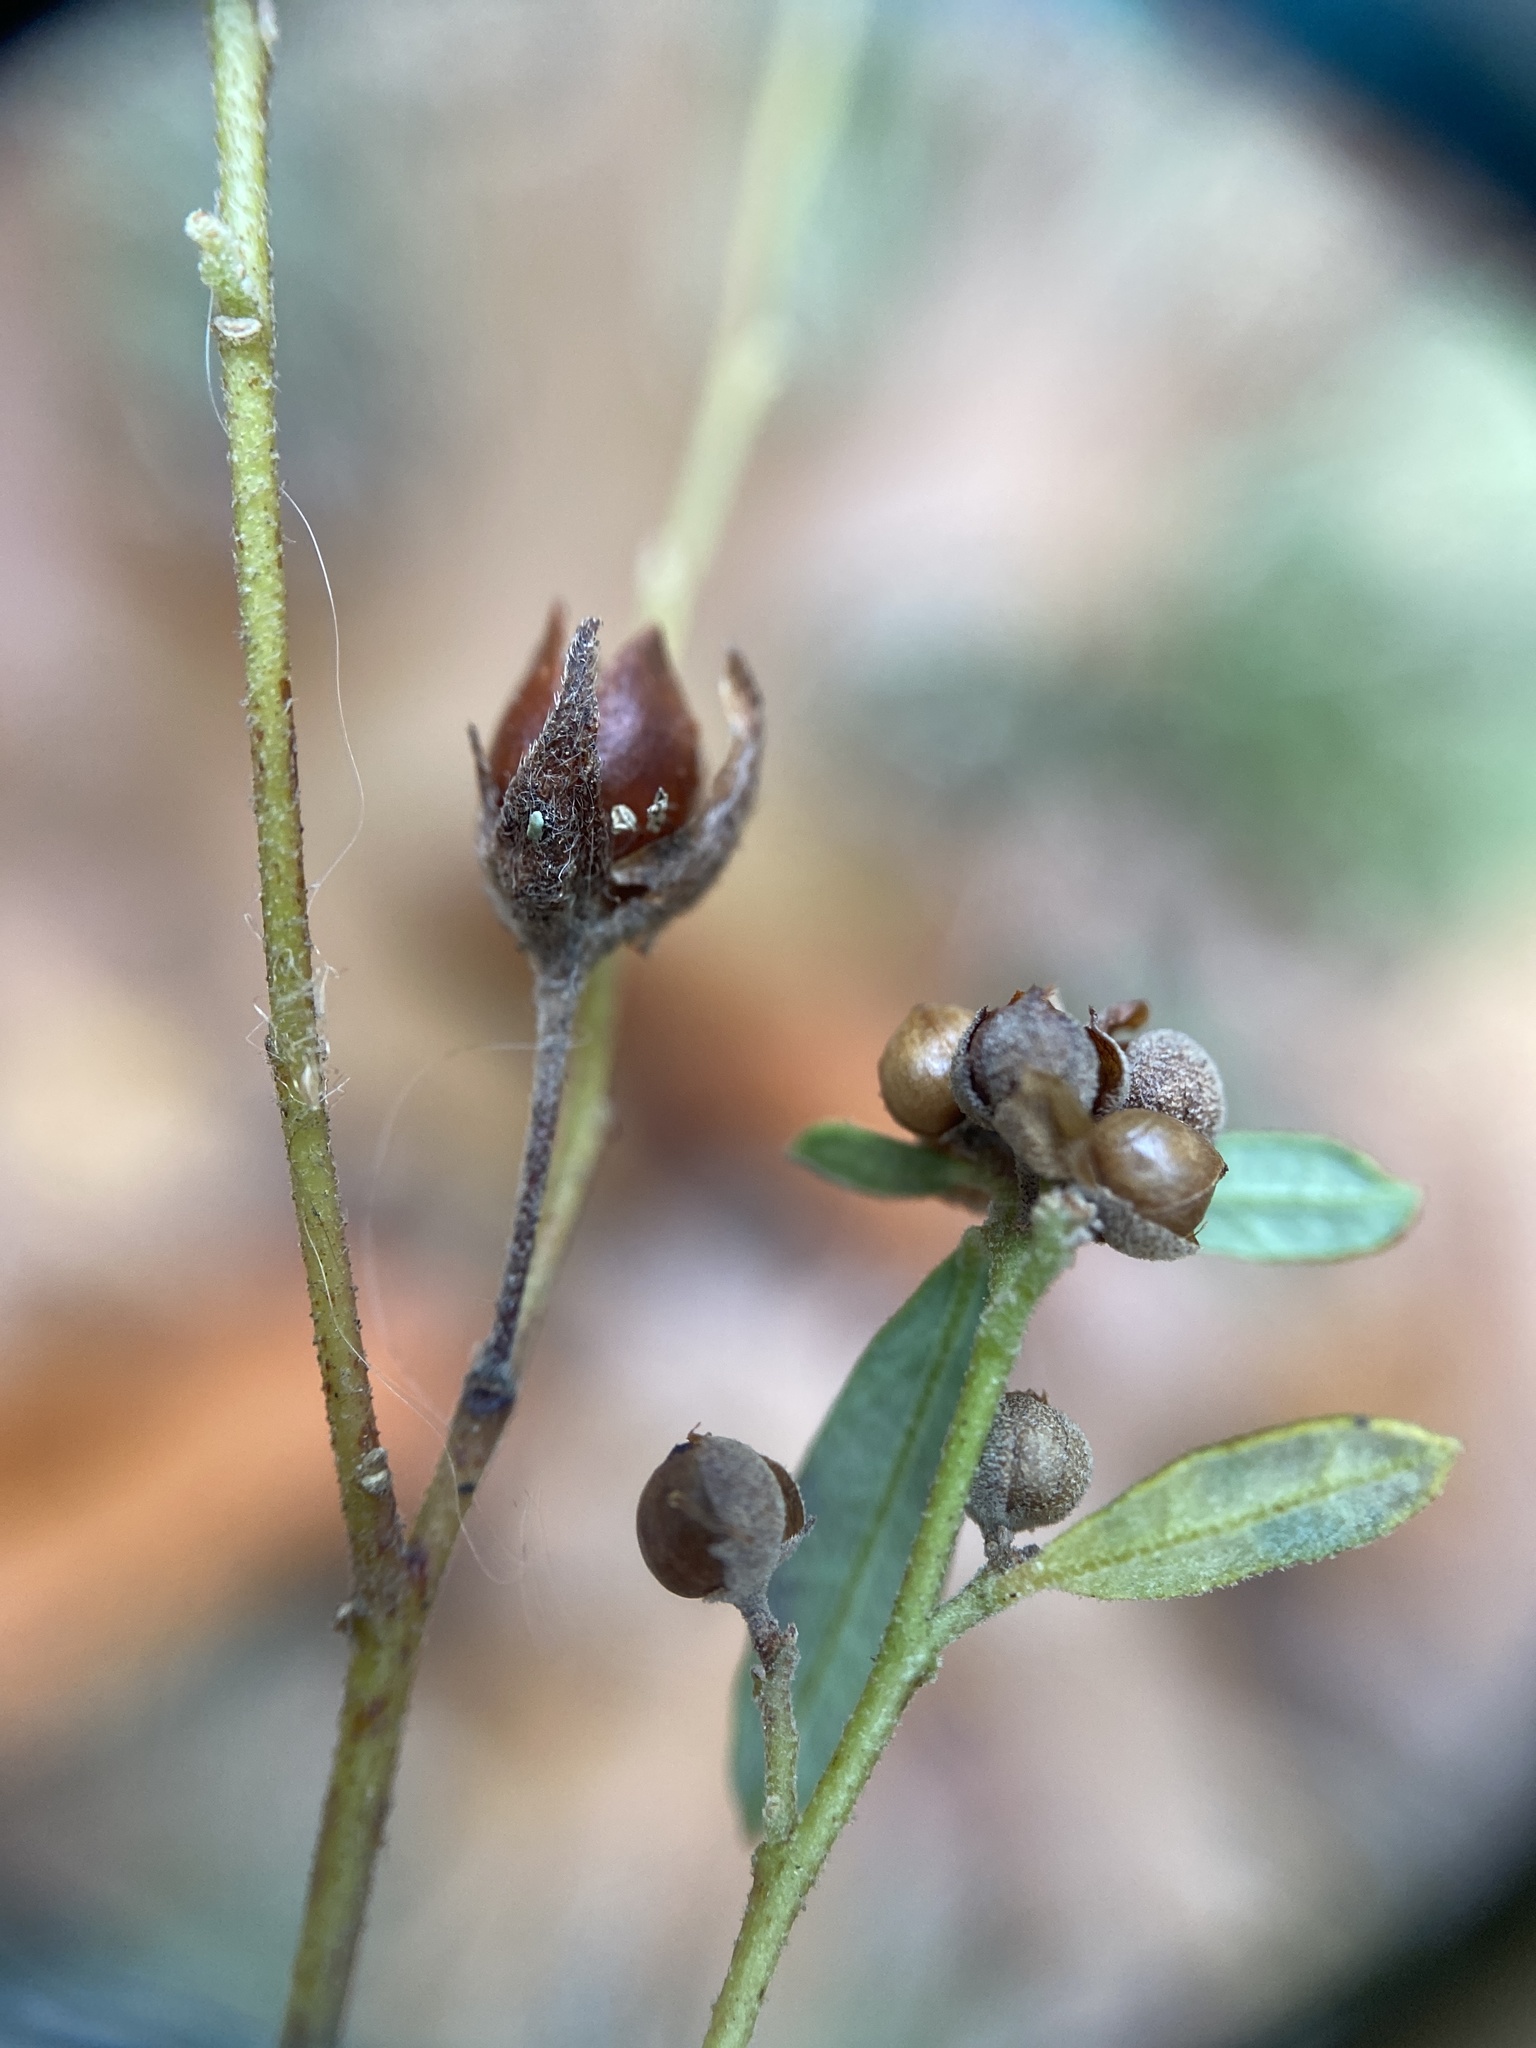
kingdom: Plantae
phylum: Tracheophyta
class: Magnoliopsida
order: Malvales
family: Cistaceae
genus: Crocanthemum
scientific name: Crocanthemum propinquum
